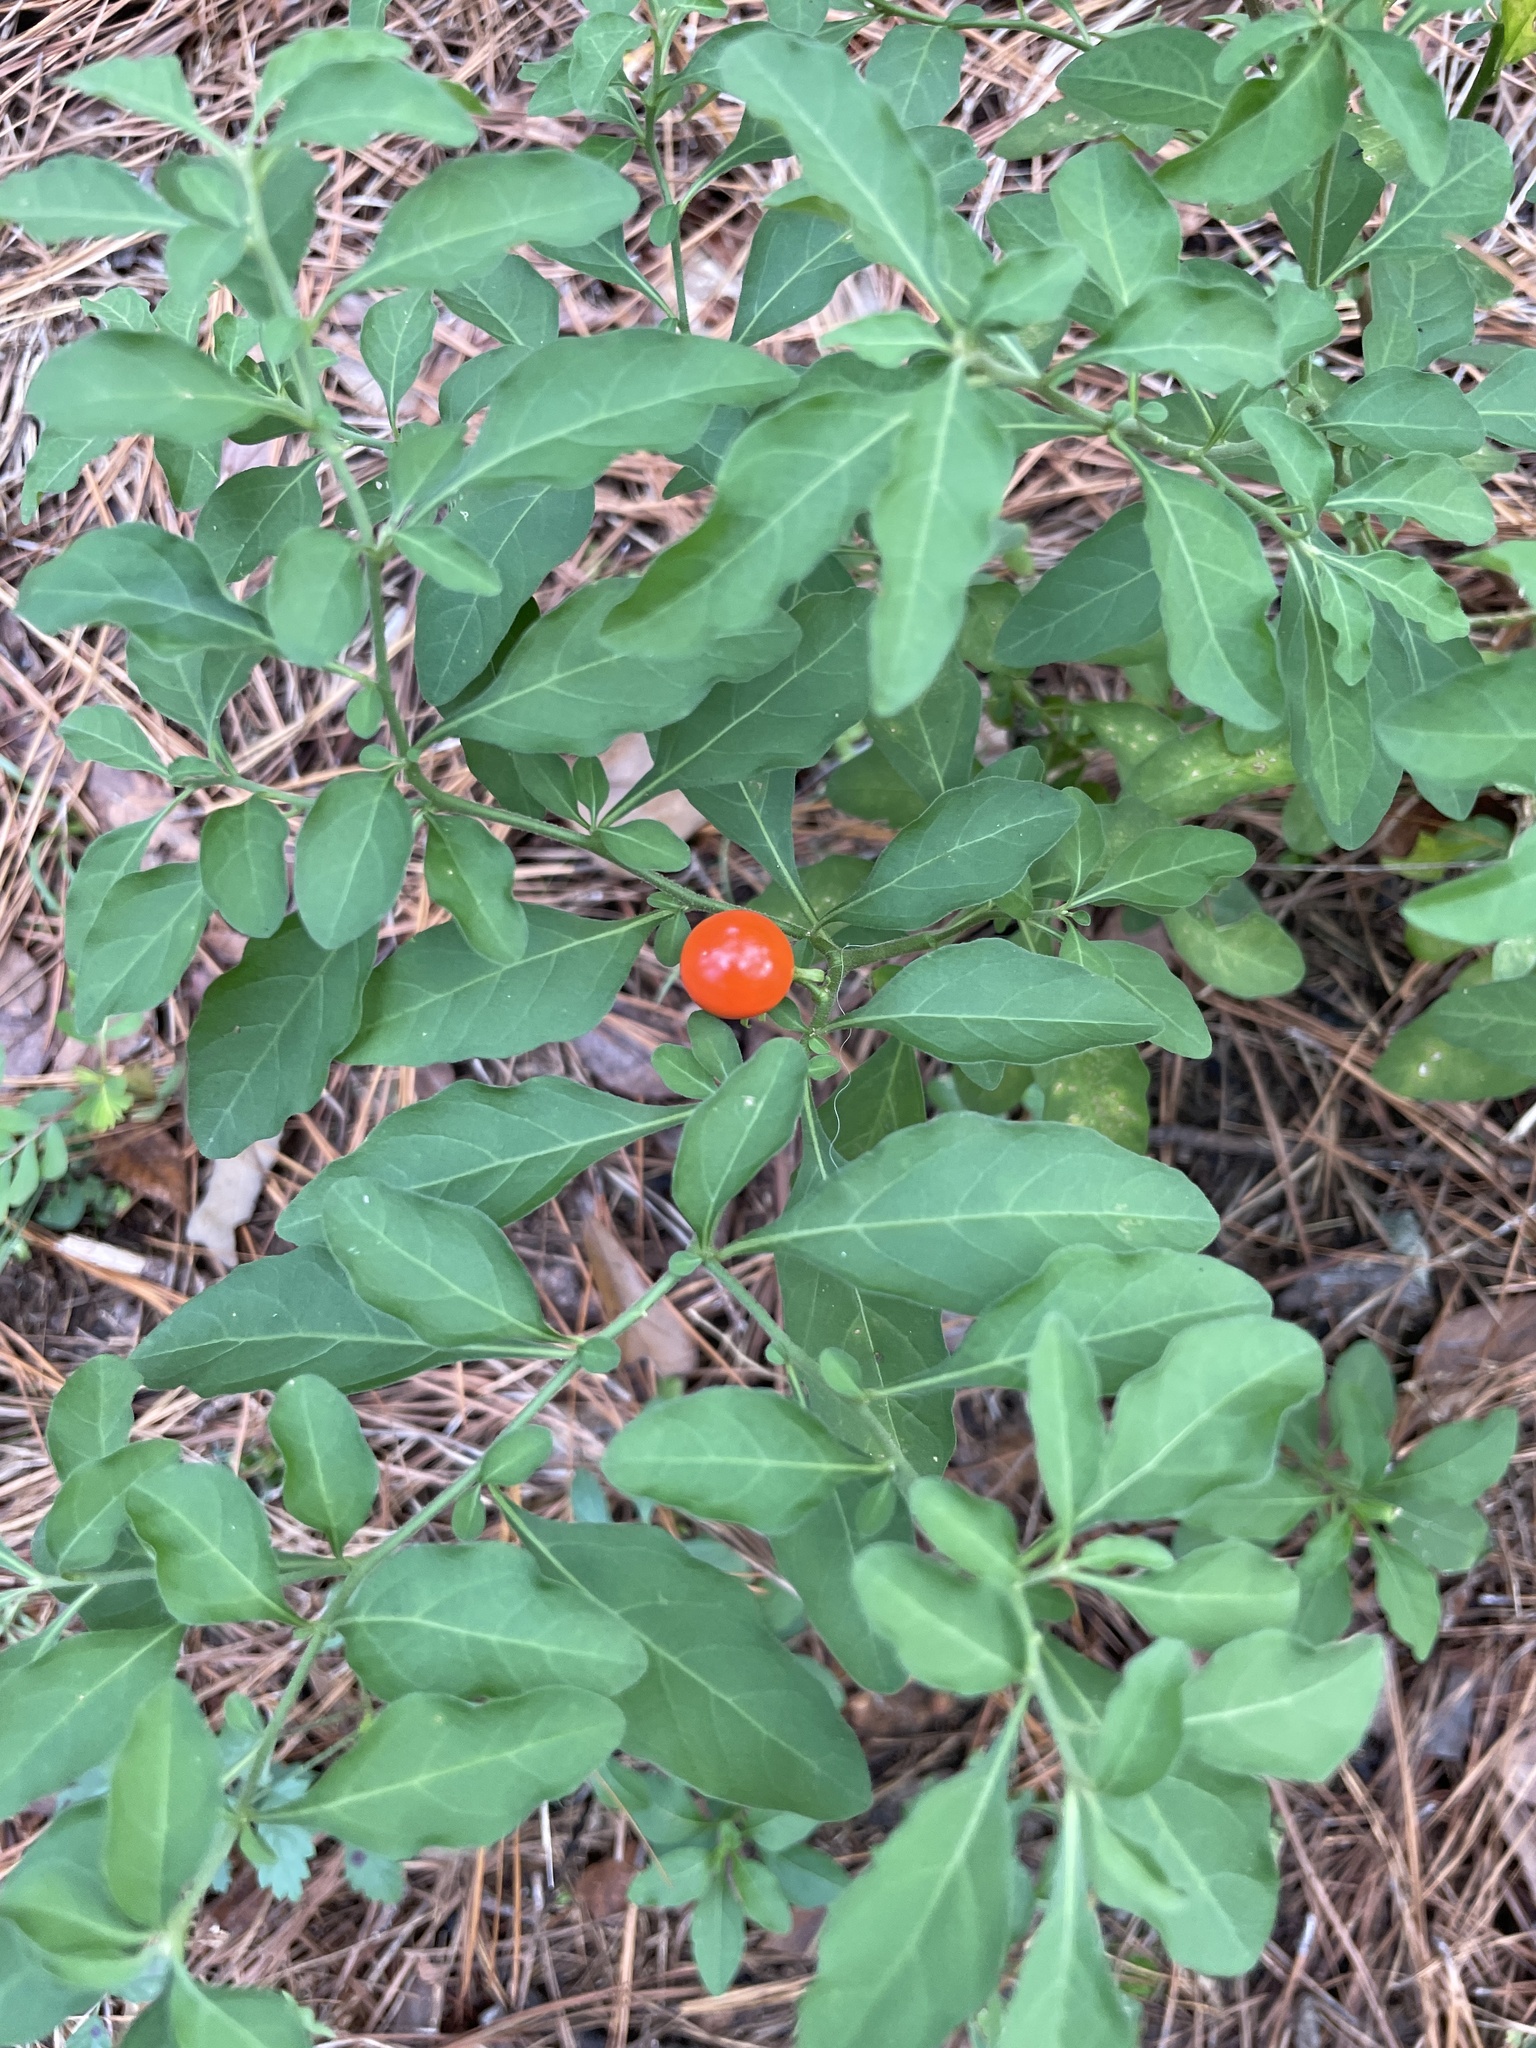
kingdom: Plantae
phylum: Tracheophyta
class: Magnoliopsida
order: Solanales
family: Solanaceae
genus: Solanum
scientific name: Solanum pseudocapsicum
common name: Jerusalem cherry
